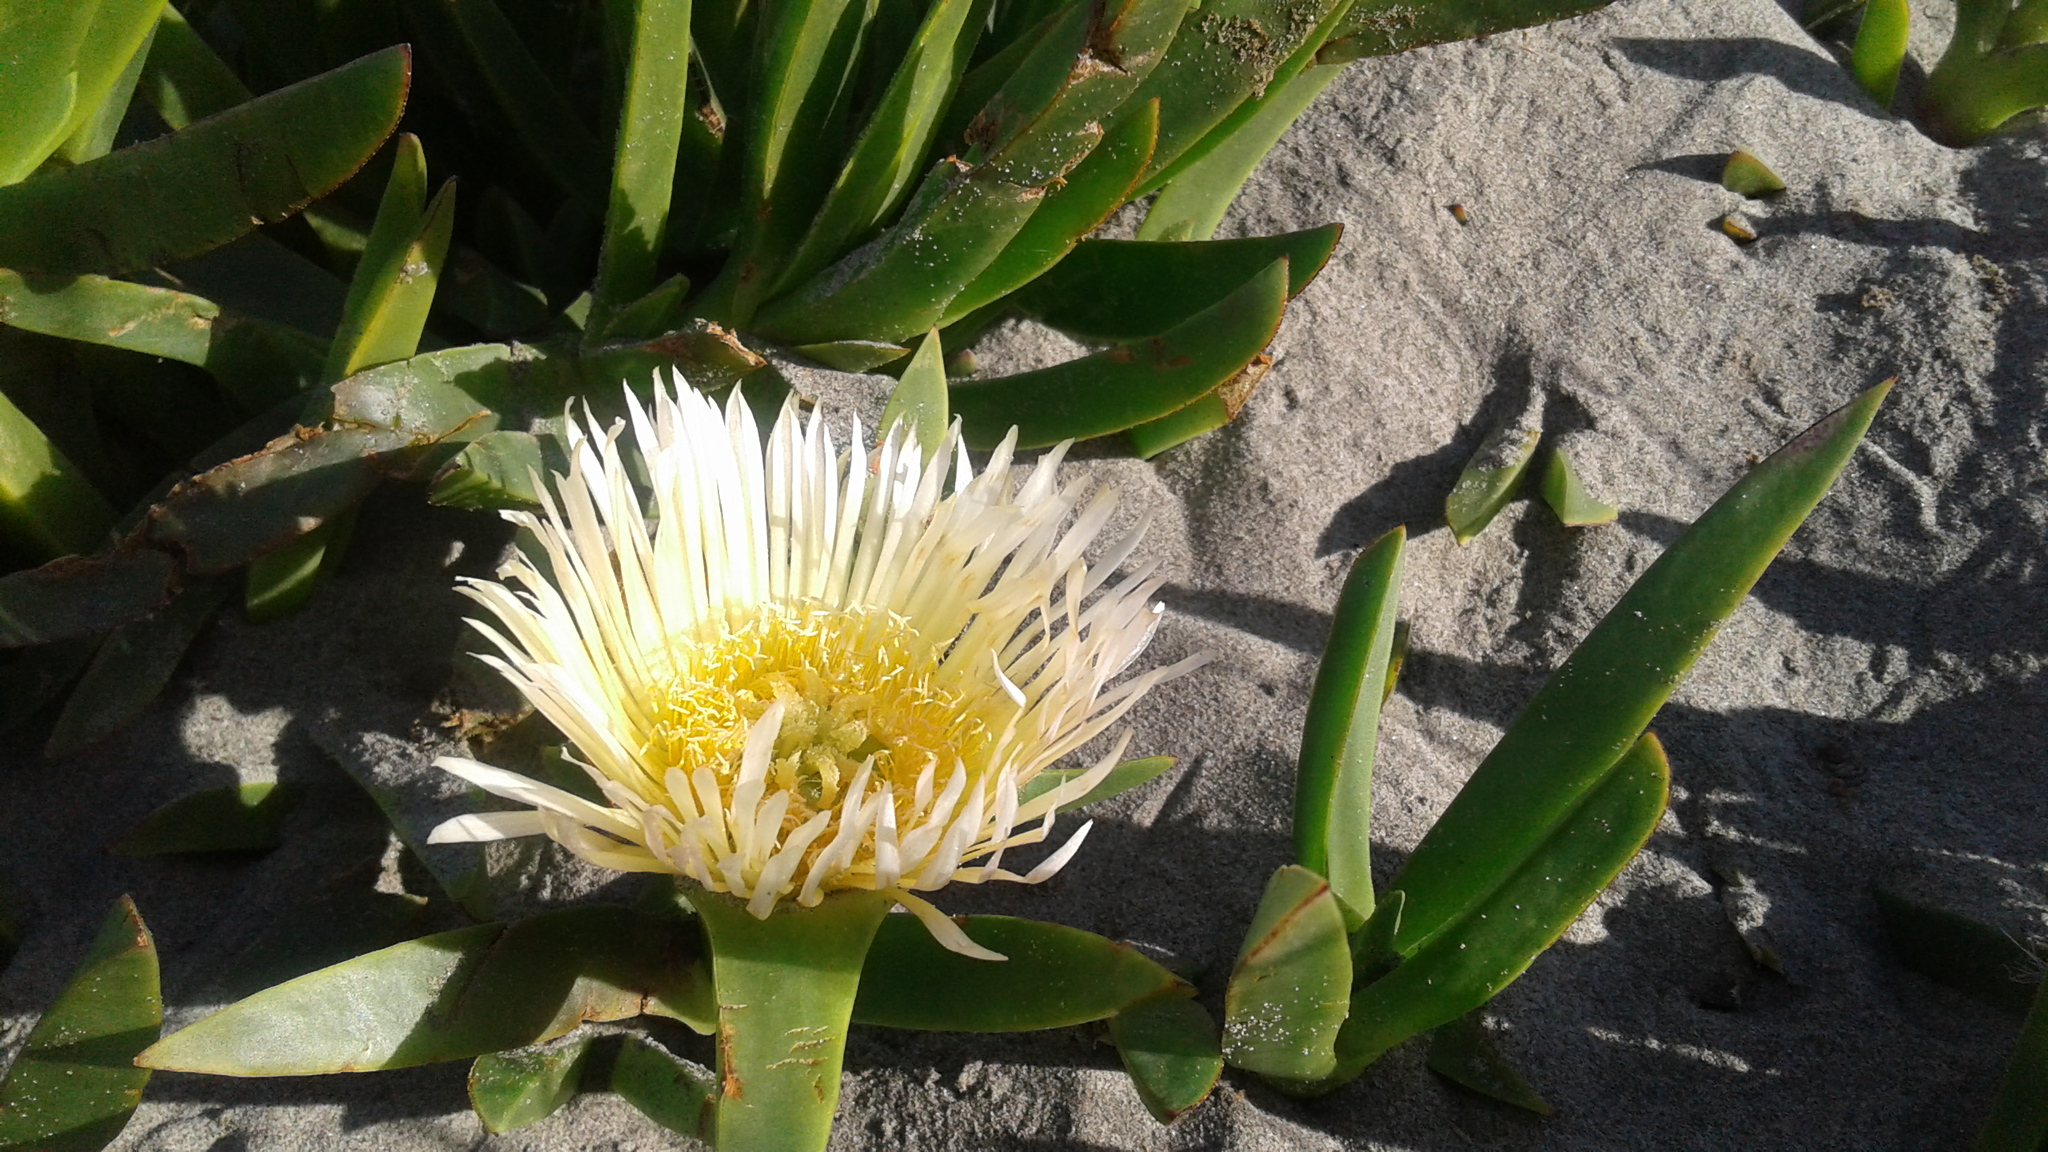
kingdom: Plantae
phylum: Tracheophyta
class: Magnoliopsida
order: Caryophyllales
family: Aizoaceae
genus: Carpobrotus
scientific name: Carpobrotus edulis
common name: Hottentot-fig
